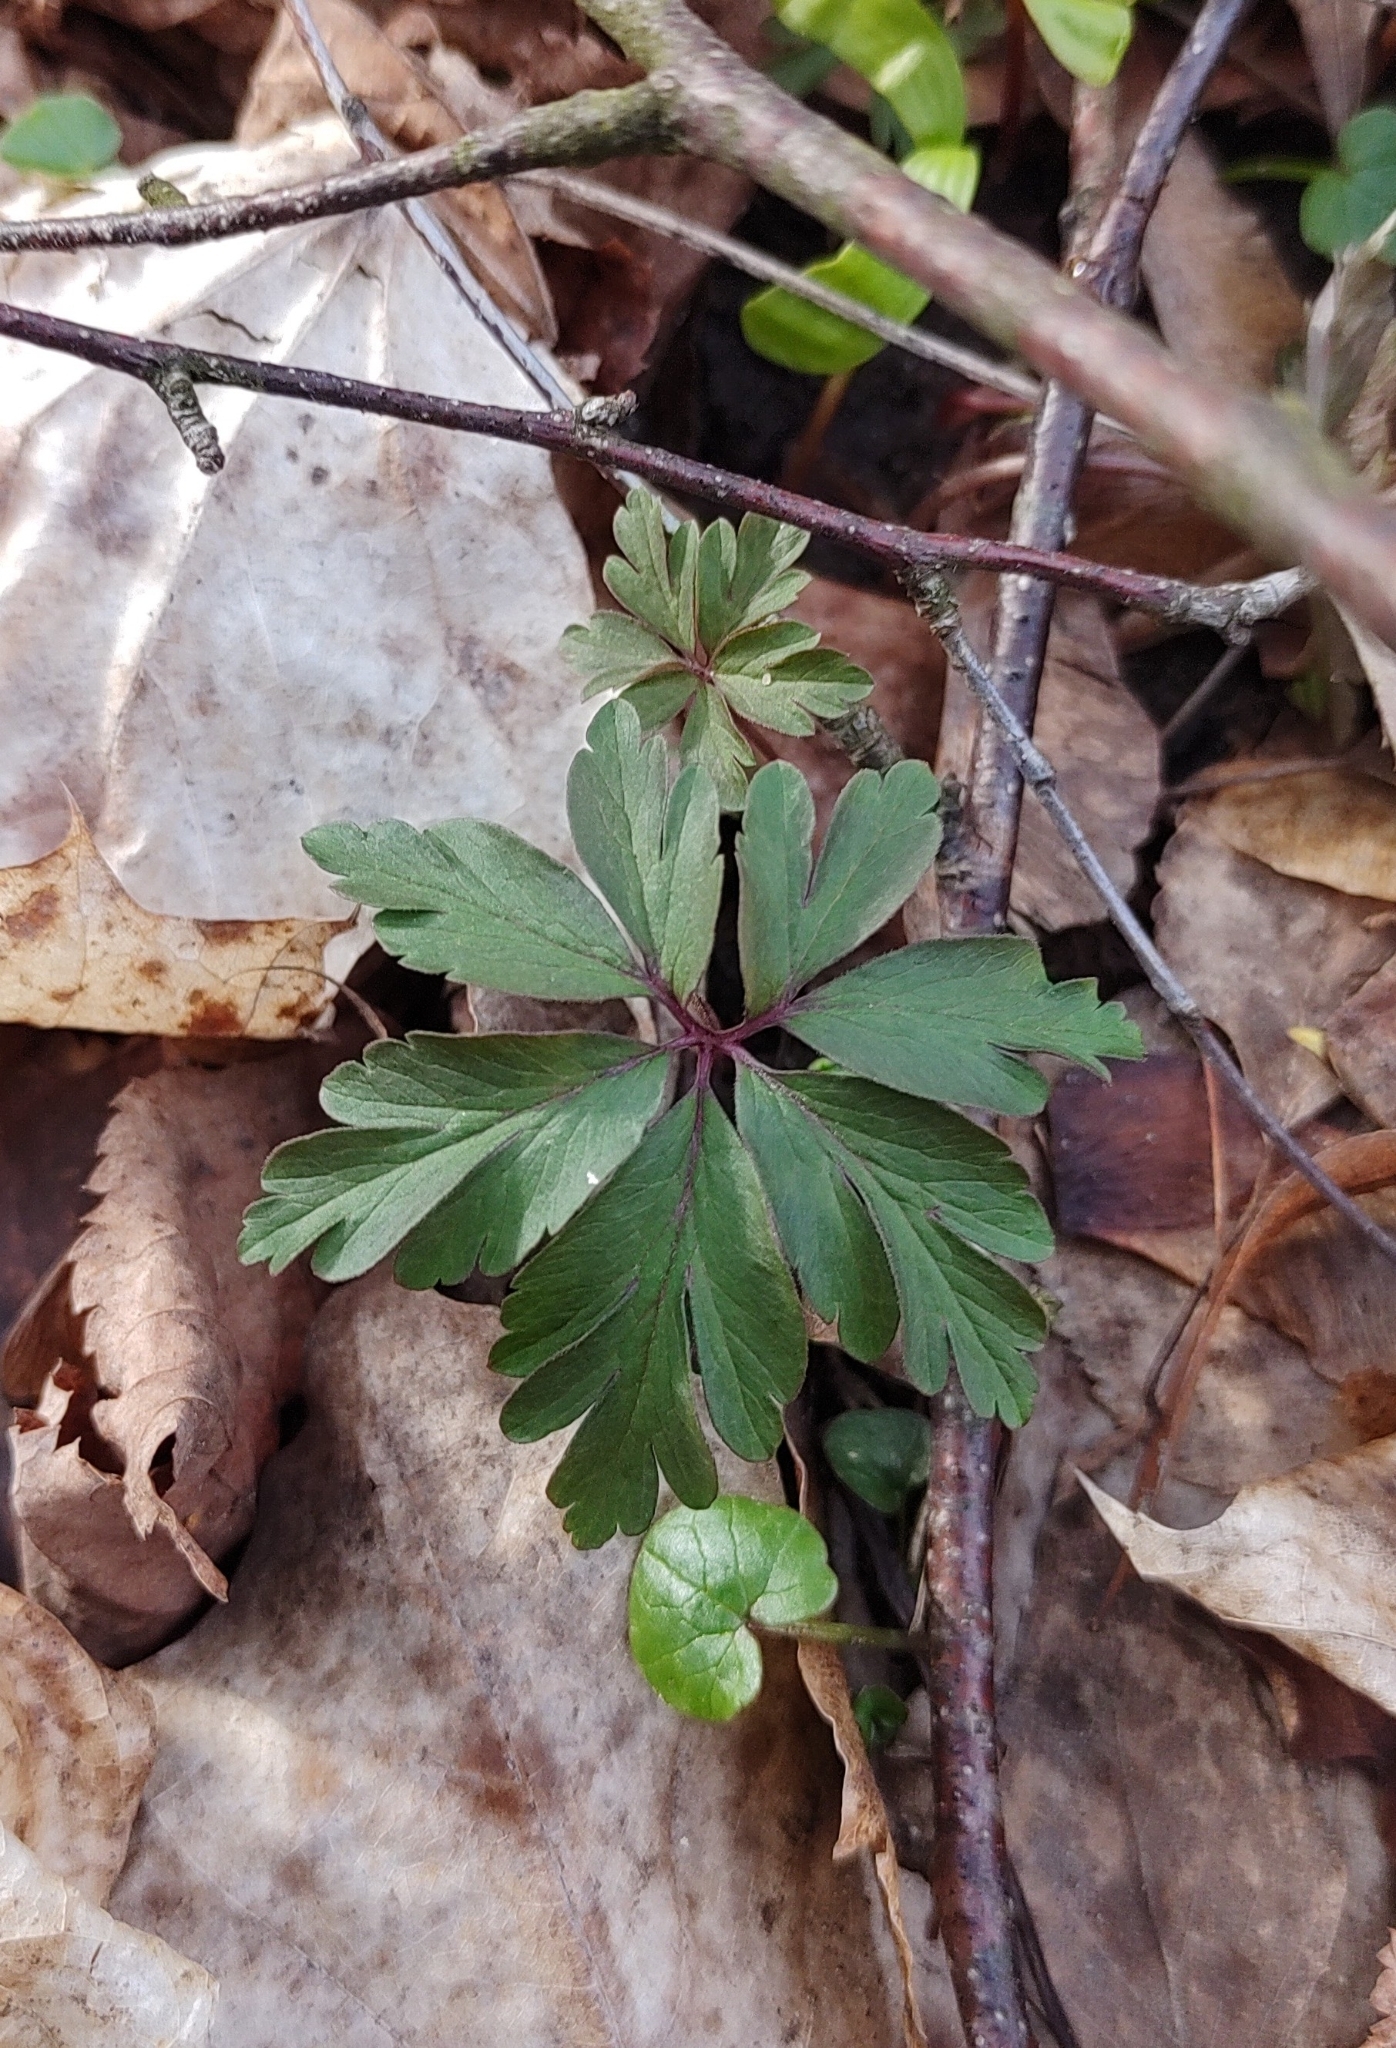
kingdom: Plantae
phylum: Tracheophyta
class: Magnoliopsida
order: Ranunculales
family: Ranunculaceae
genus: Anemone
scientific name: Anemone nemorosa
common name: Wood anemone
